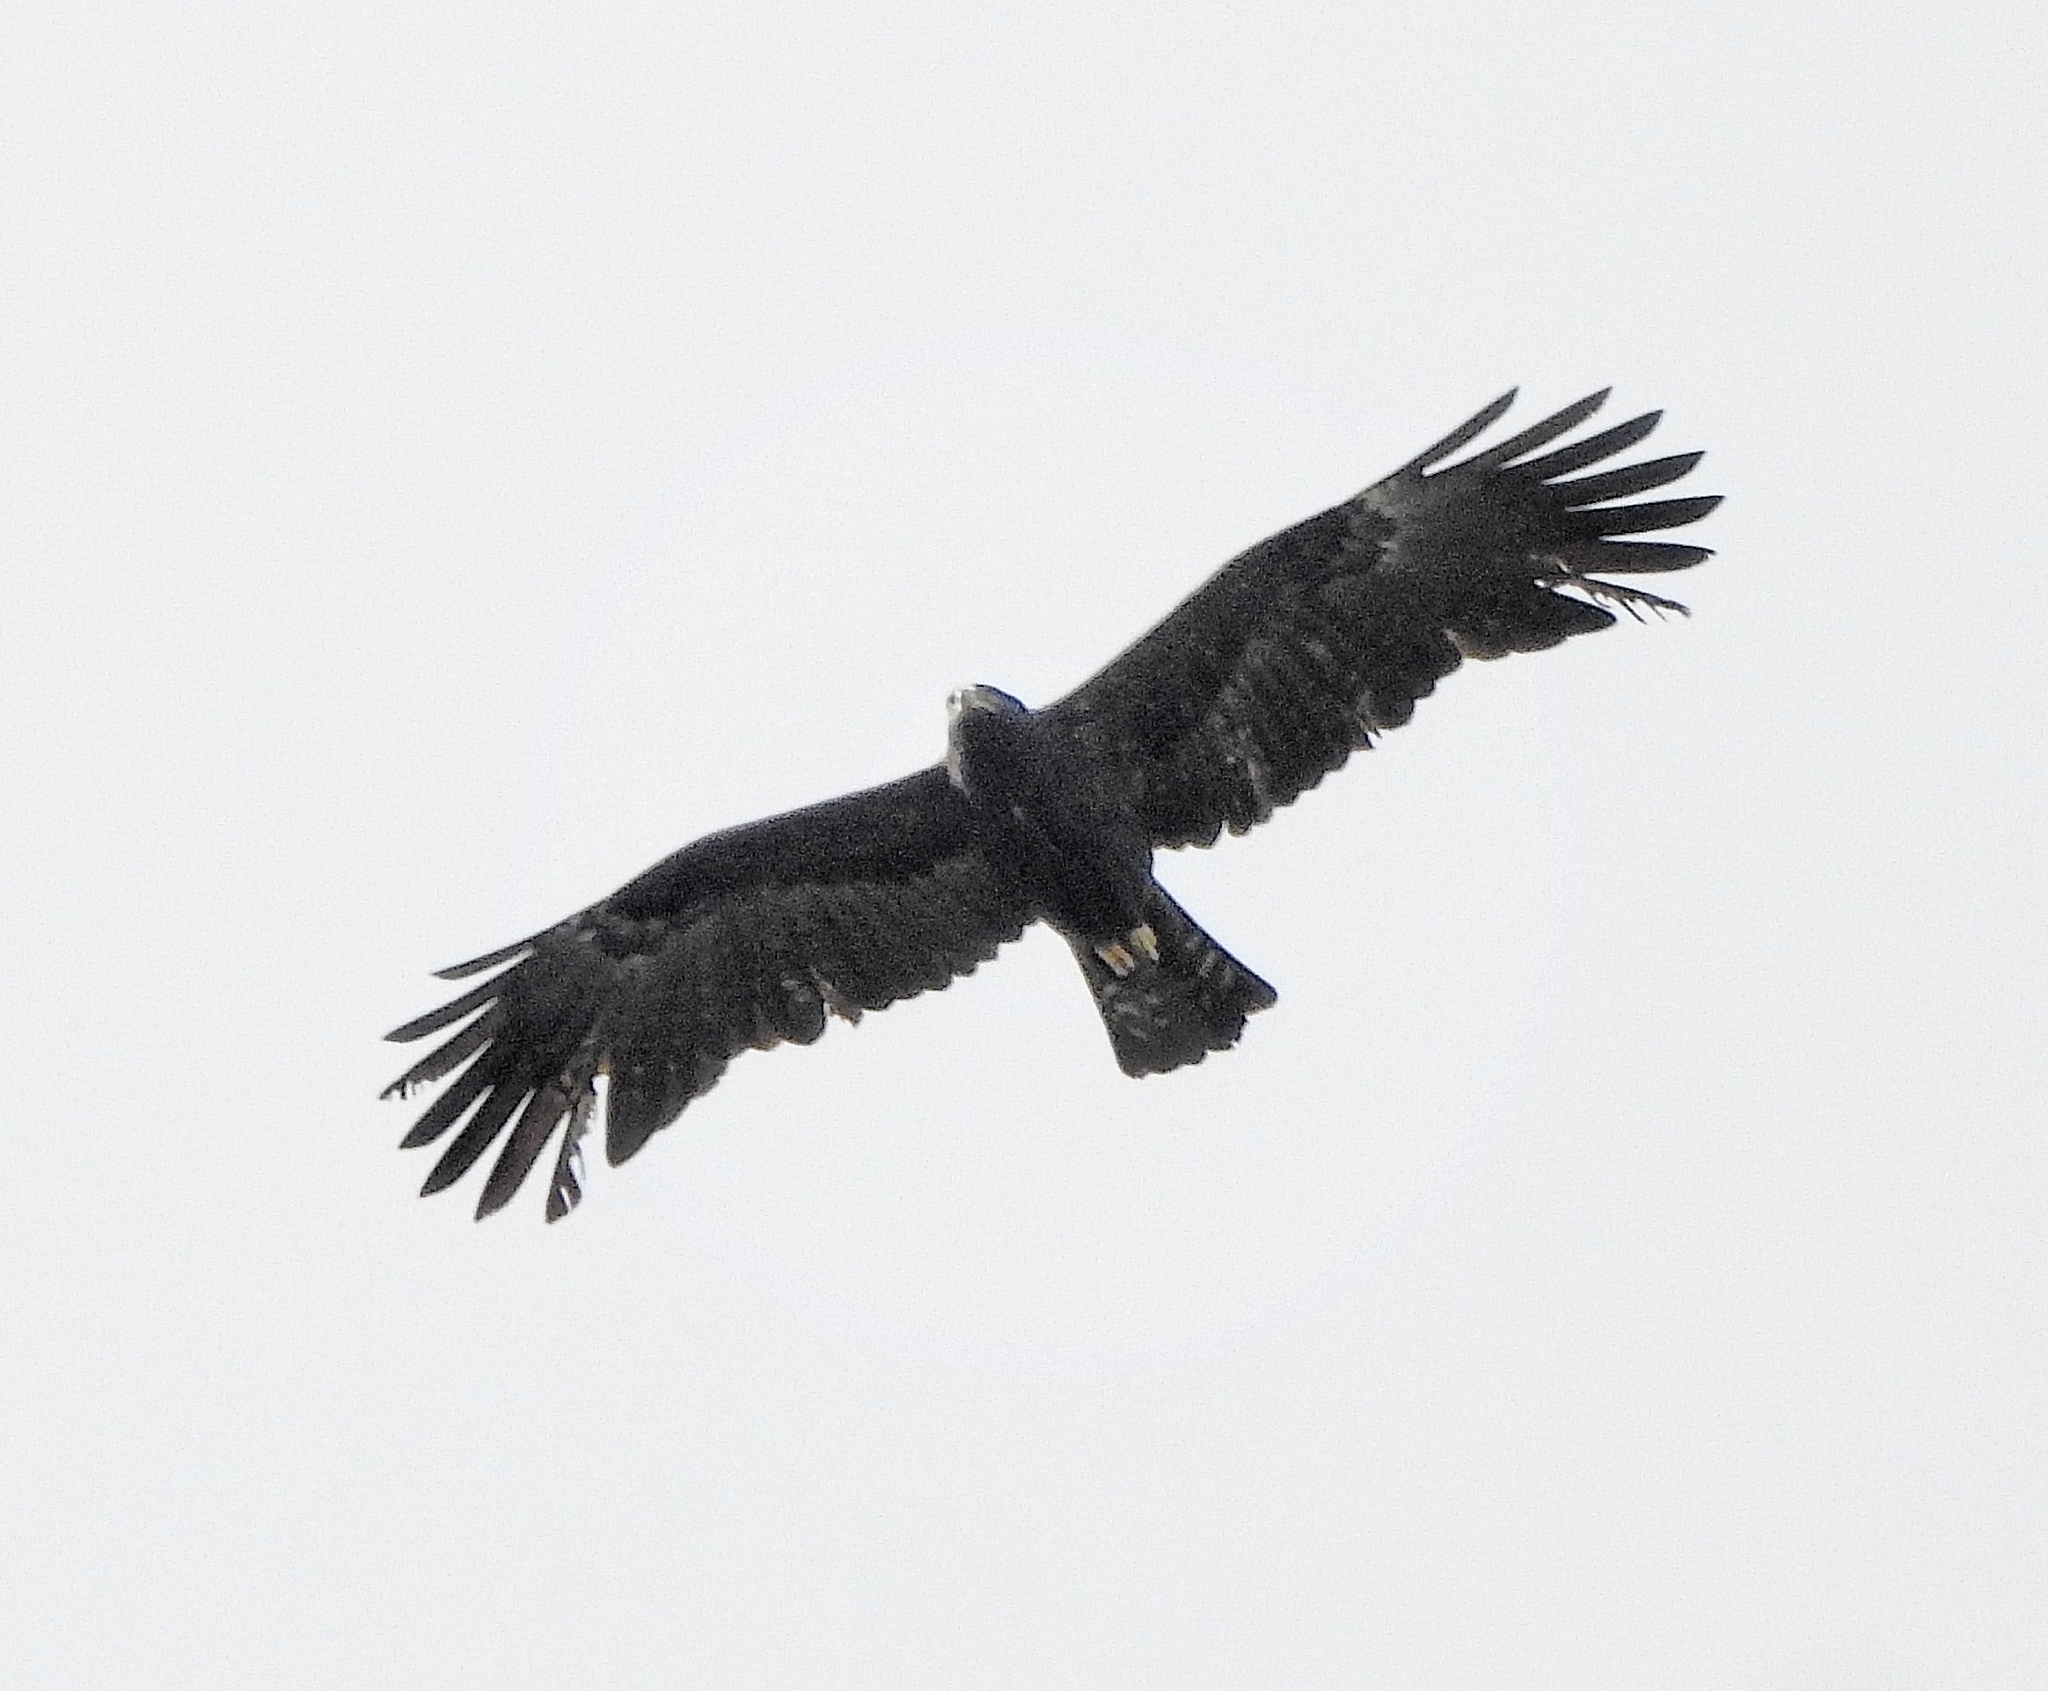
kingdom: Animalia
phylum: Chordata
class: Aves
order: Accipitriformes
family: Accipitridae
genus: Ictinaetus
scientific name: Ictinaetus malayensis
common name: Black eagle
